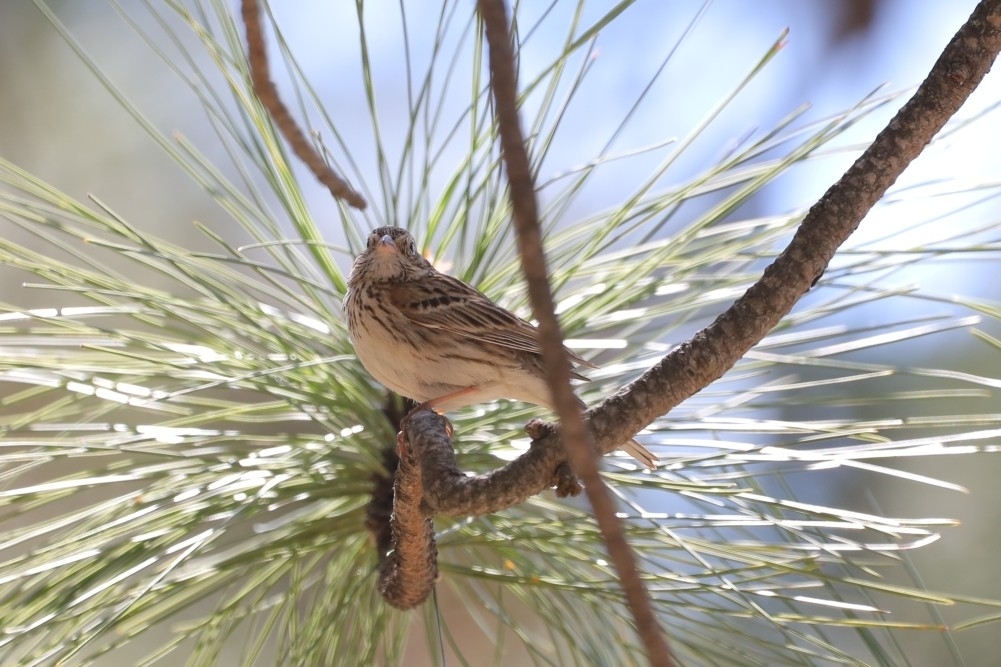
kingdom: Animalia
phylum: Chordata
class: Aves
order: Passeriformes
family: Passerellidae
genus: Pooecetes
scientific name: Pooecetes gramineus
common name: Vesper sparrow
